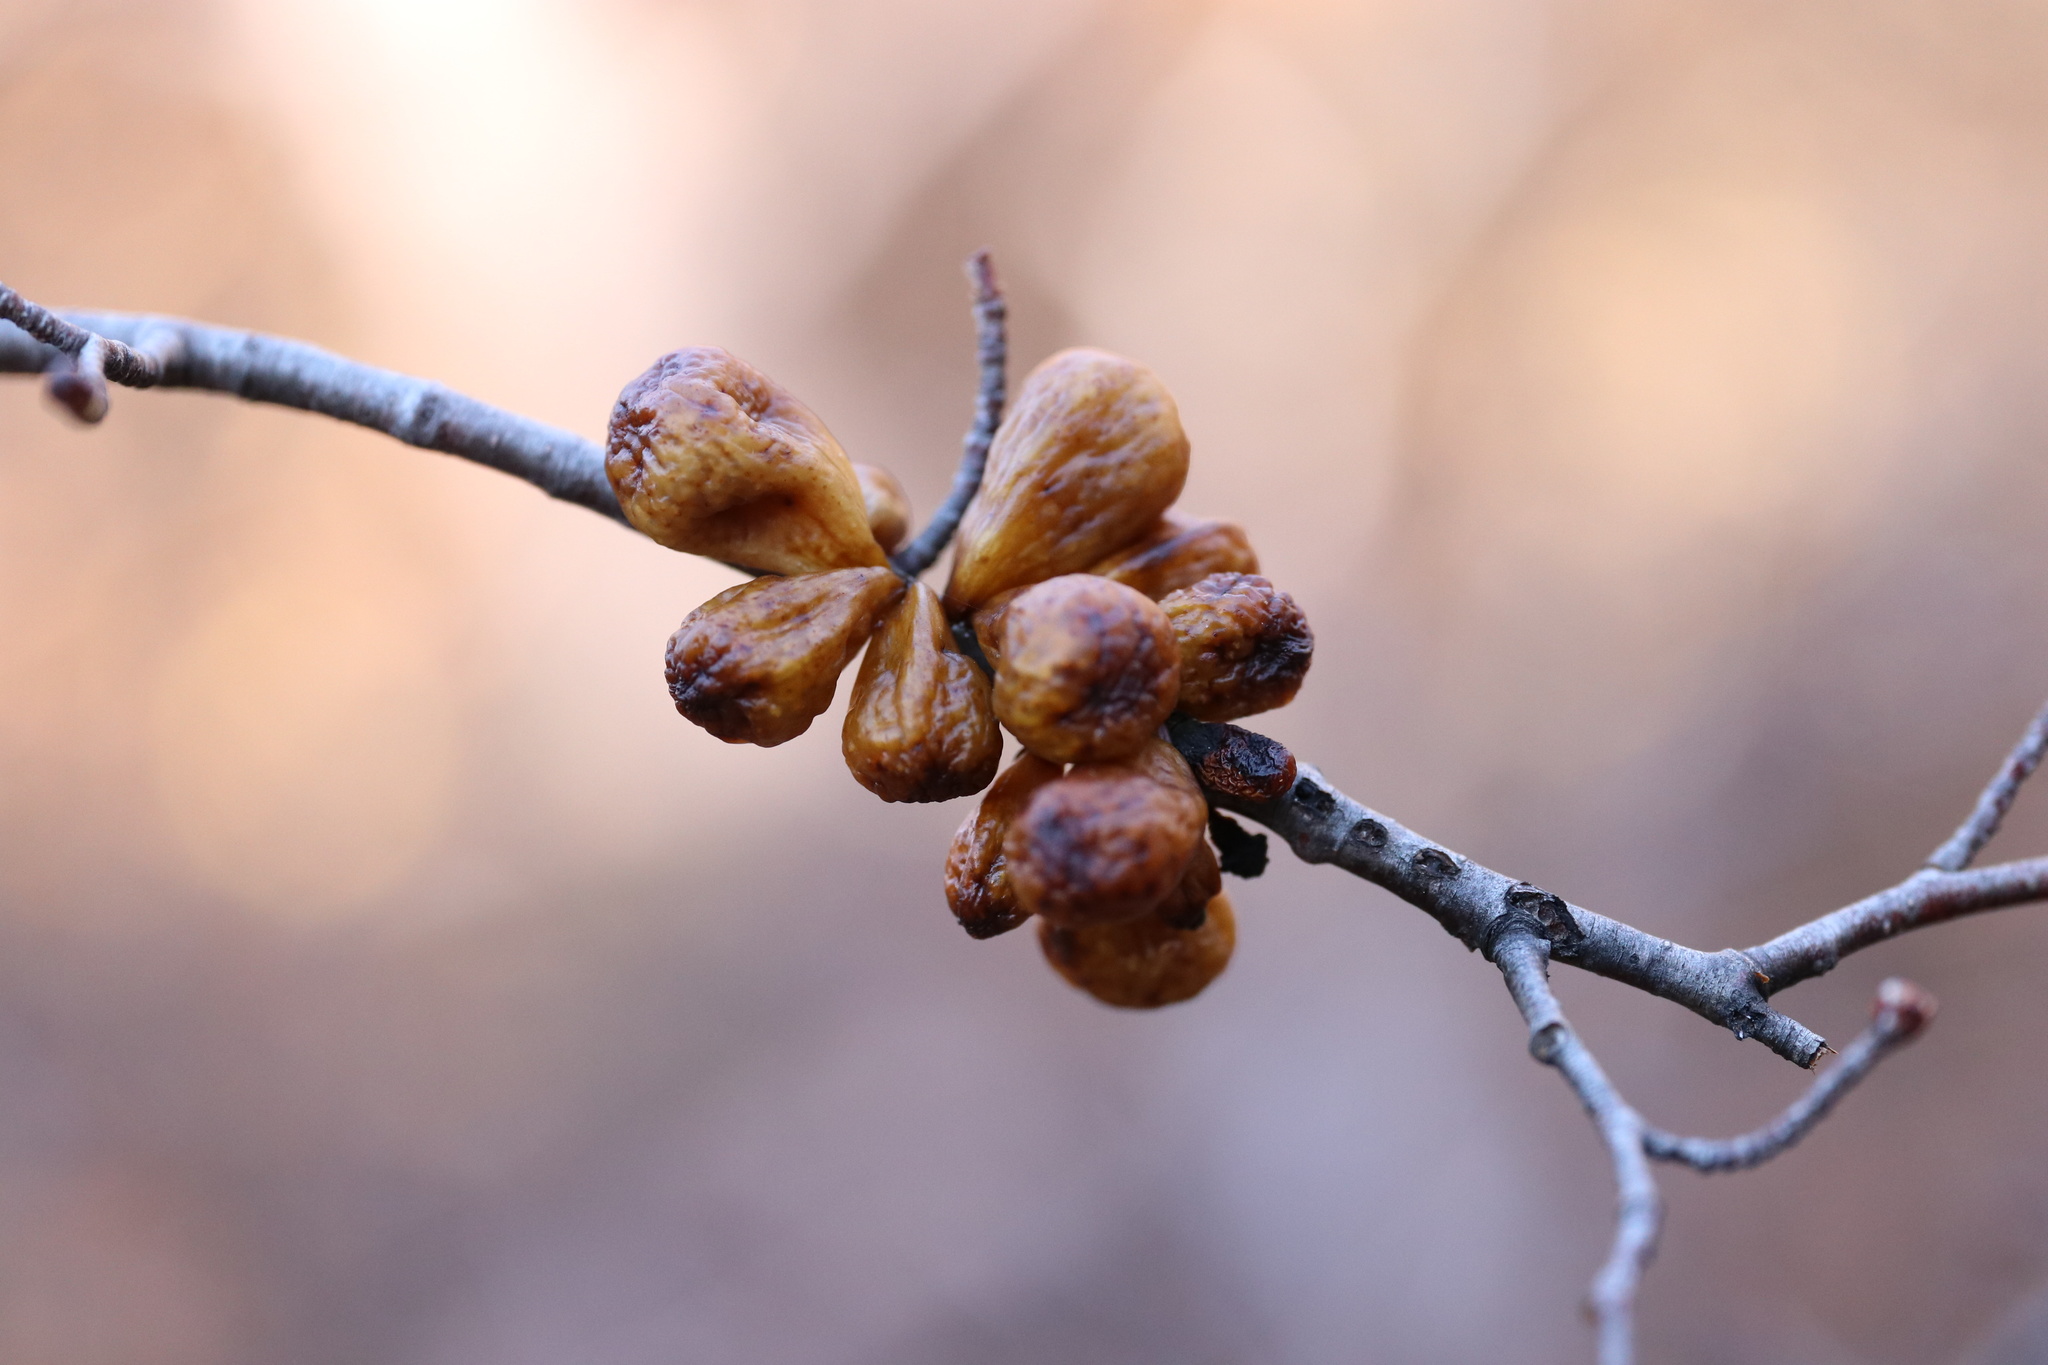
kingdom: Fungi
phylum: Ascomycota
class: Leotiomycetes
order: Cyttariales
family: Cyttariaceae
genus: Cyttaria
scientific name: Cyttaria hookeri
